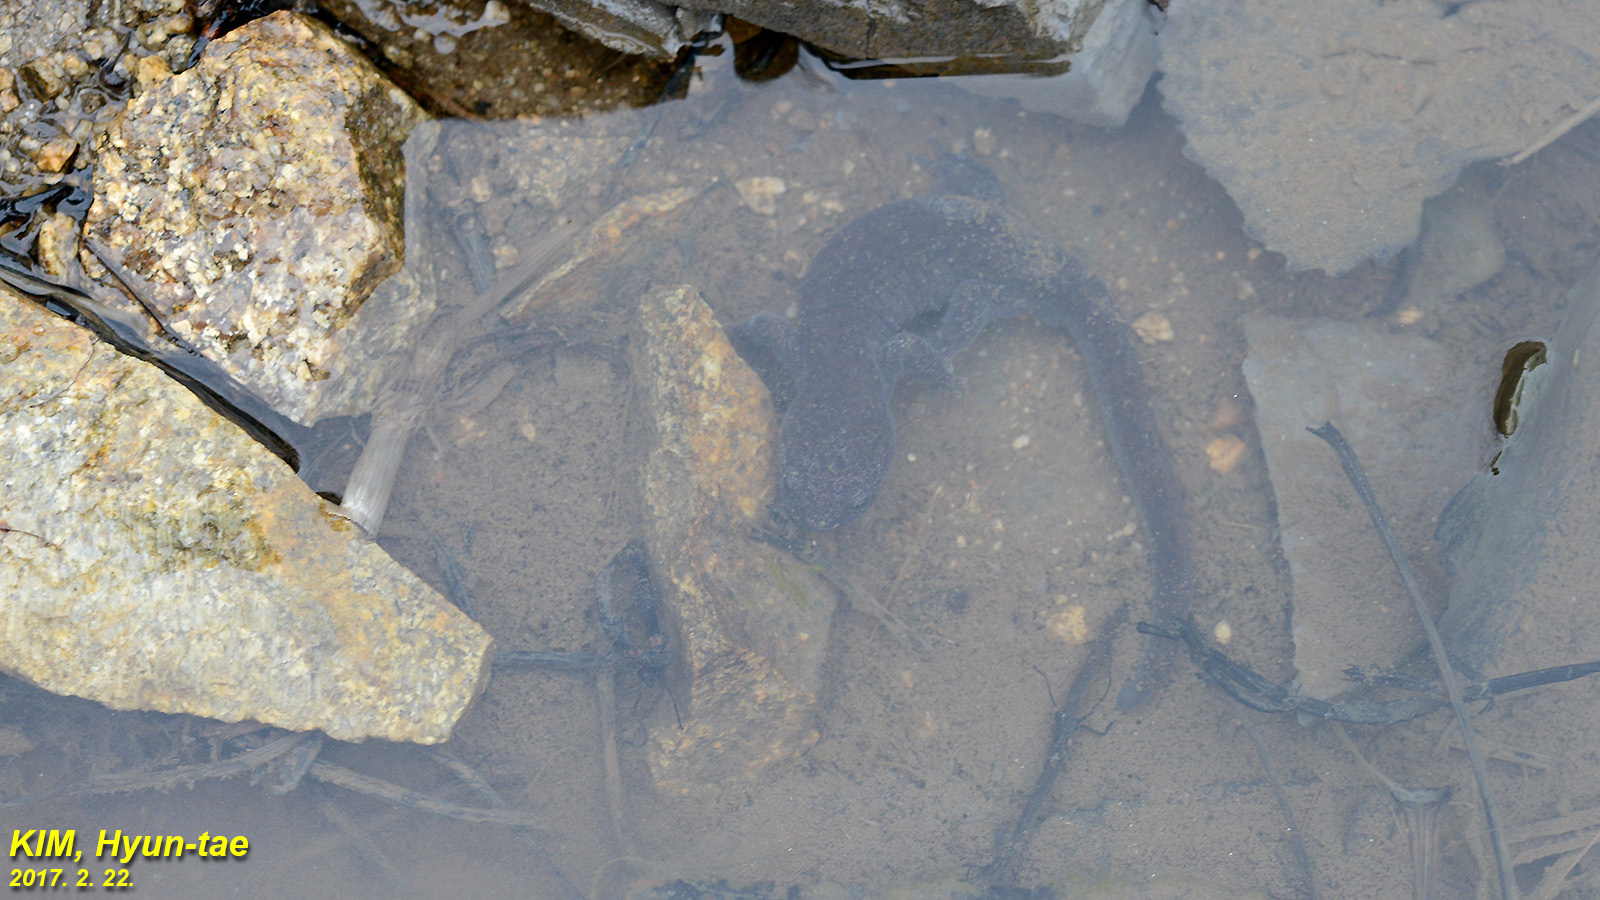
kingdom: Animalia
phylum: Chordata
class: Amphibia
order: Caudata
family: Hynobiidae
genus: Hynobius
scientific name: Hynobius leechii
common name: Gensan salamander
